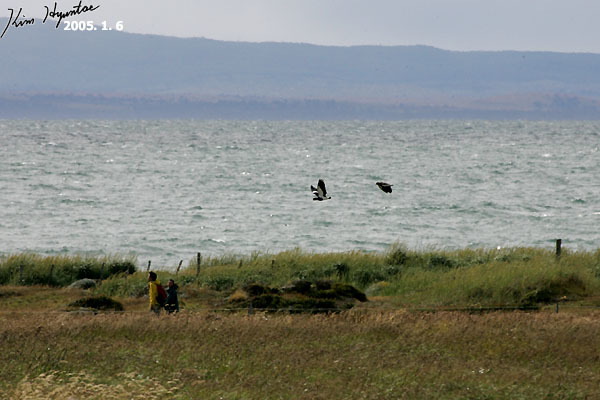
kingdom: Animalia
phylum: Chordata
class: Aves
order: Charadriiformes
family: Charadriidae
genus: Vanellus
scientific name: Vanellus chilensis
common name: Southern lapwing
